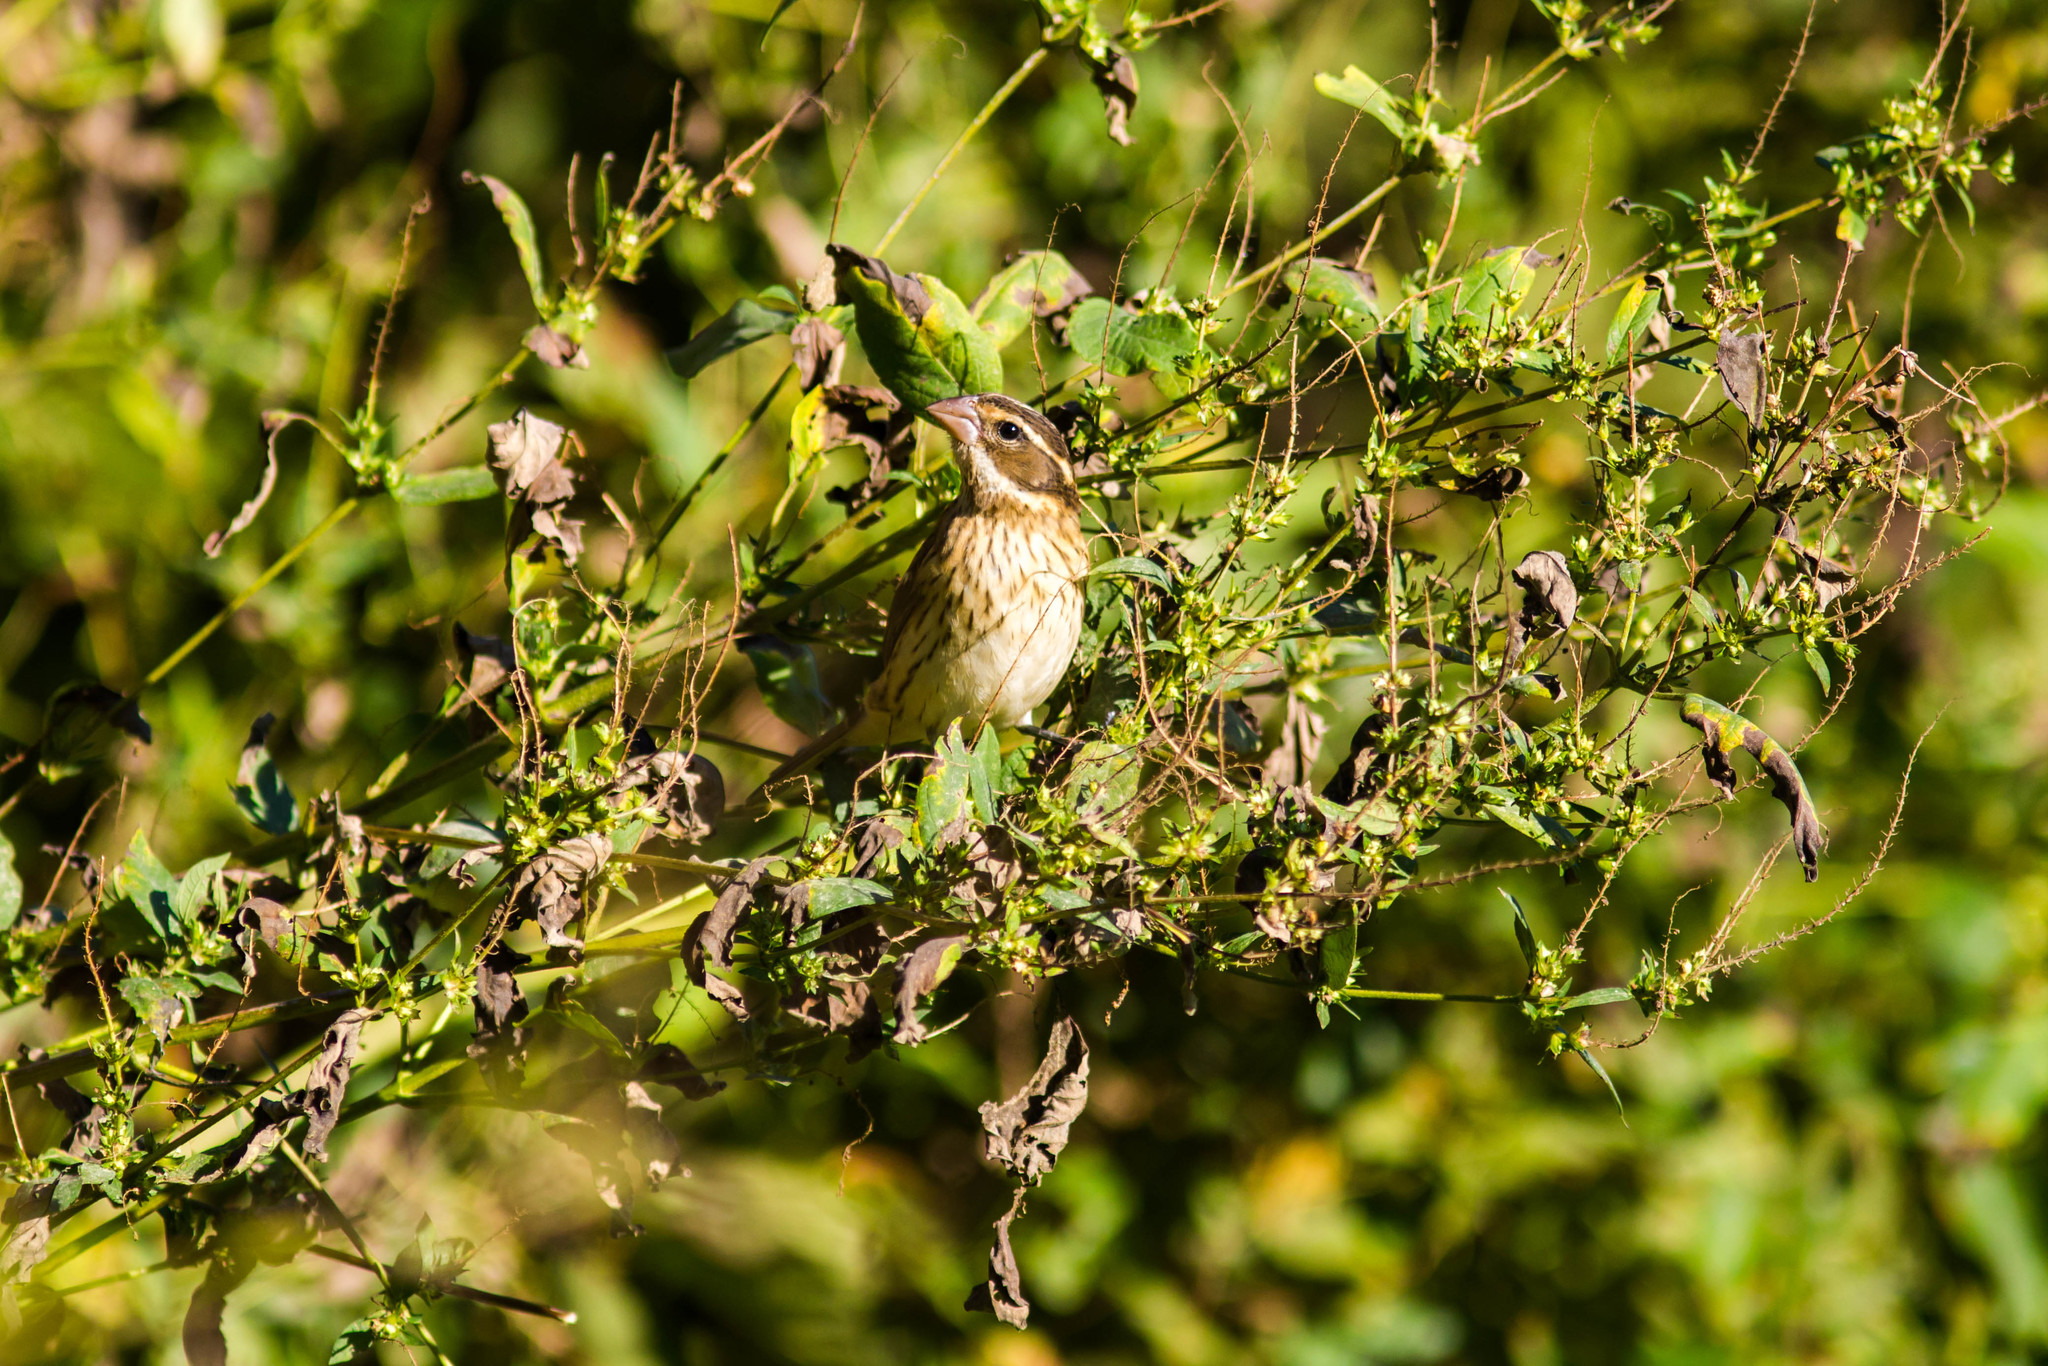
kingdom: Animalia
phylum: Chordata
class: Aves
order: Passeriformes
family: Cardinalidae
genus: Pheucticus
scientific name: Pheucticus ludovicianus
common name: Rose-breasted grosbeak
